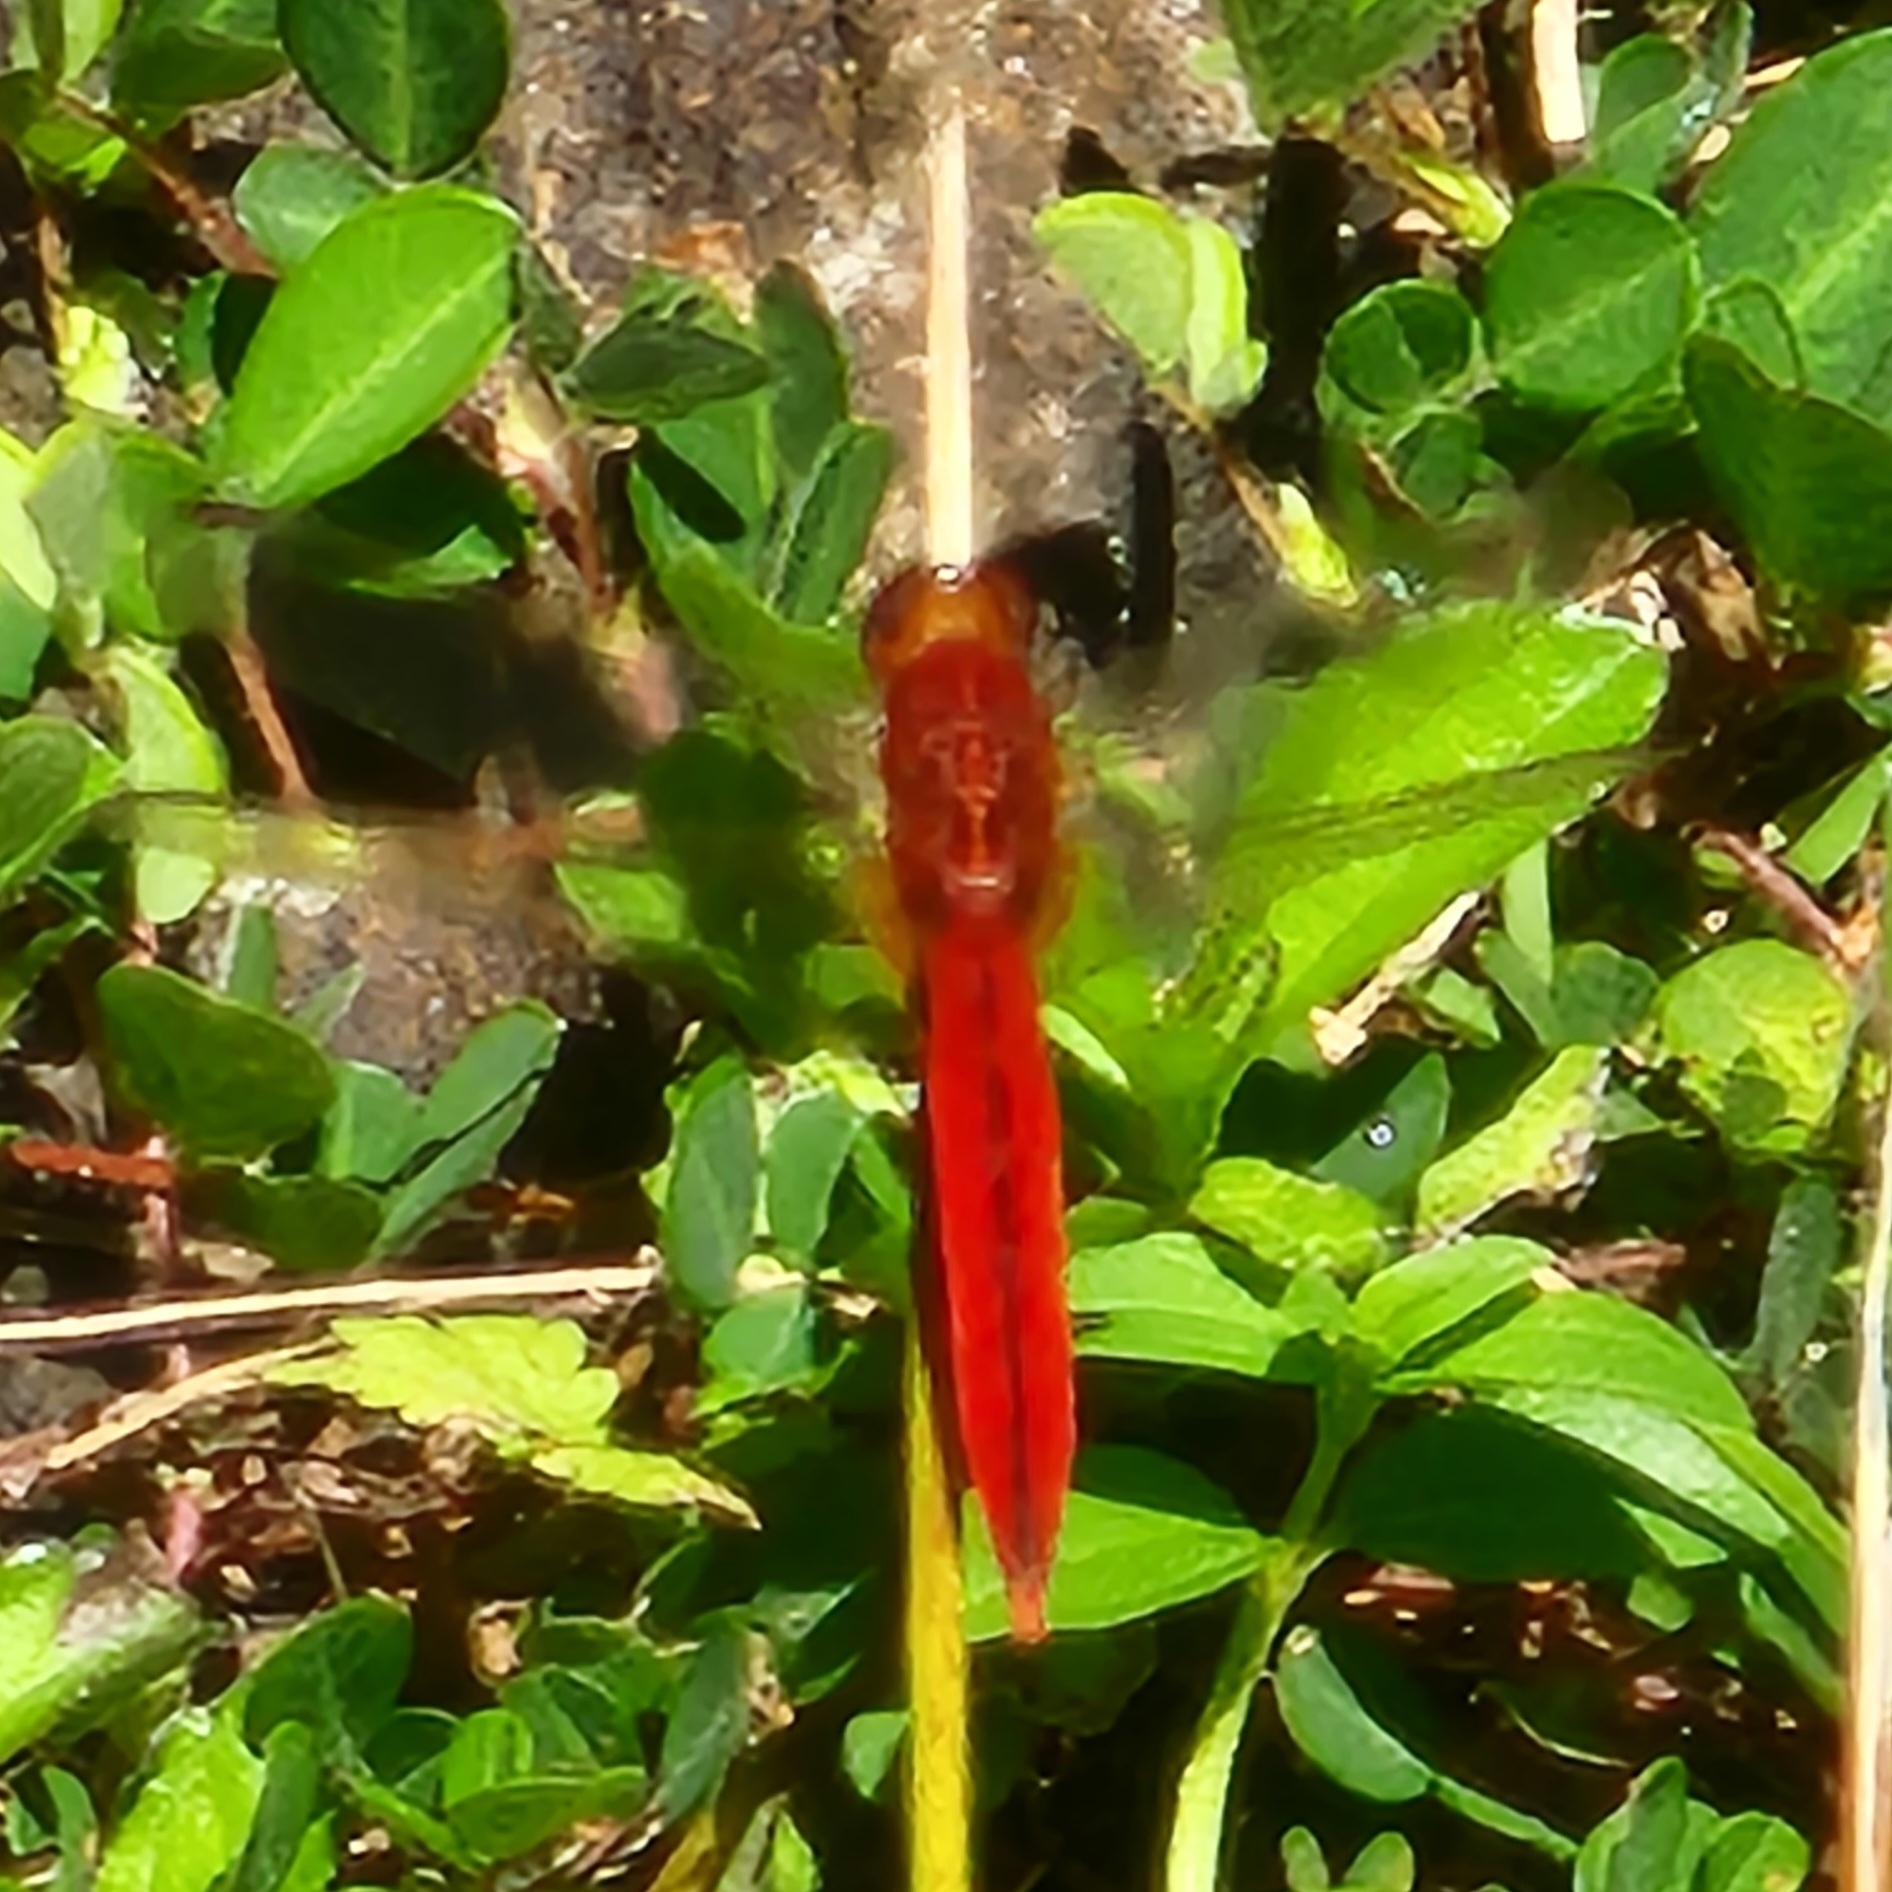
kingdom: Animalia
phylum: Arthropoda
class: Insecta
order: Odonata
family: Libellulidae
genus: Crocothemis
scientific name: Crocothemis servilia
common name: Scarlet skimmer
